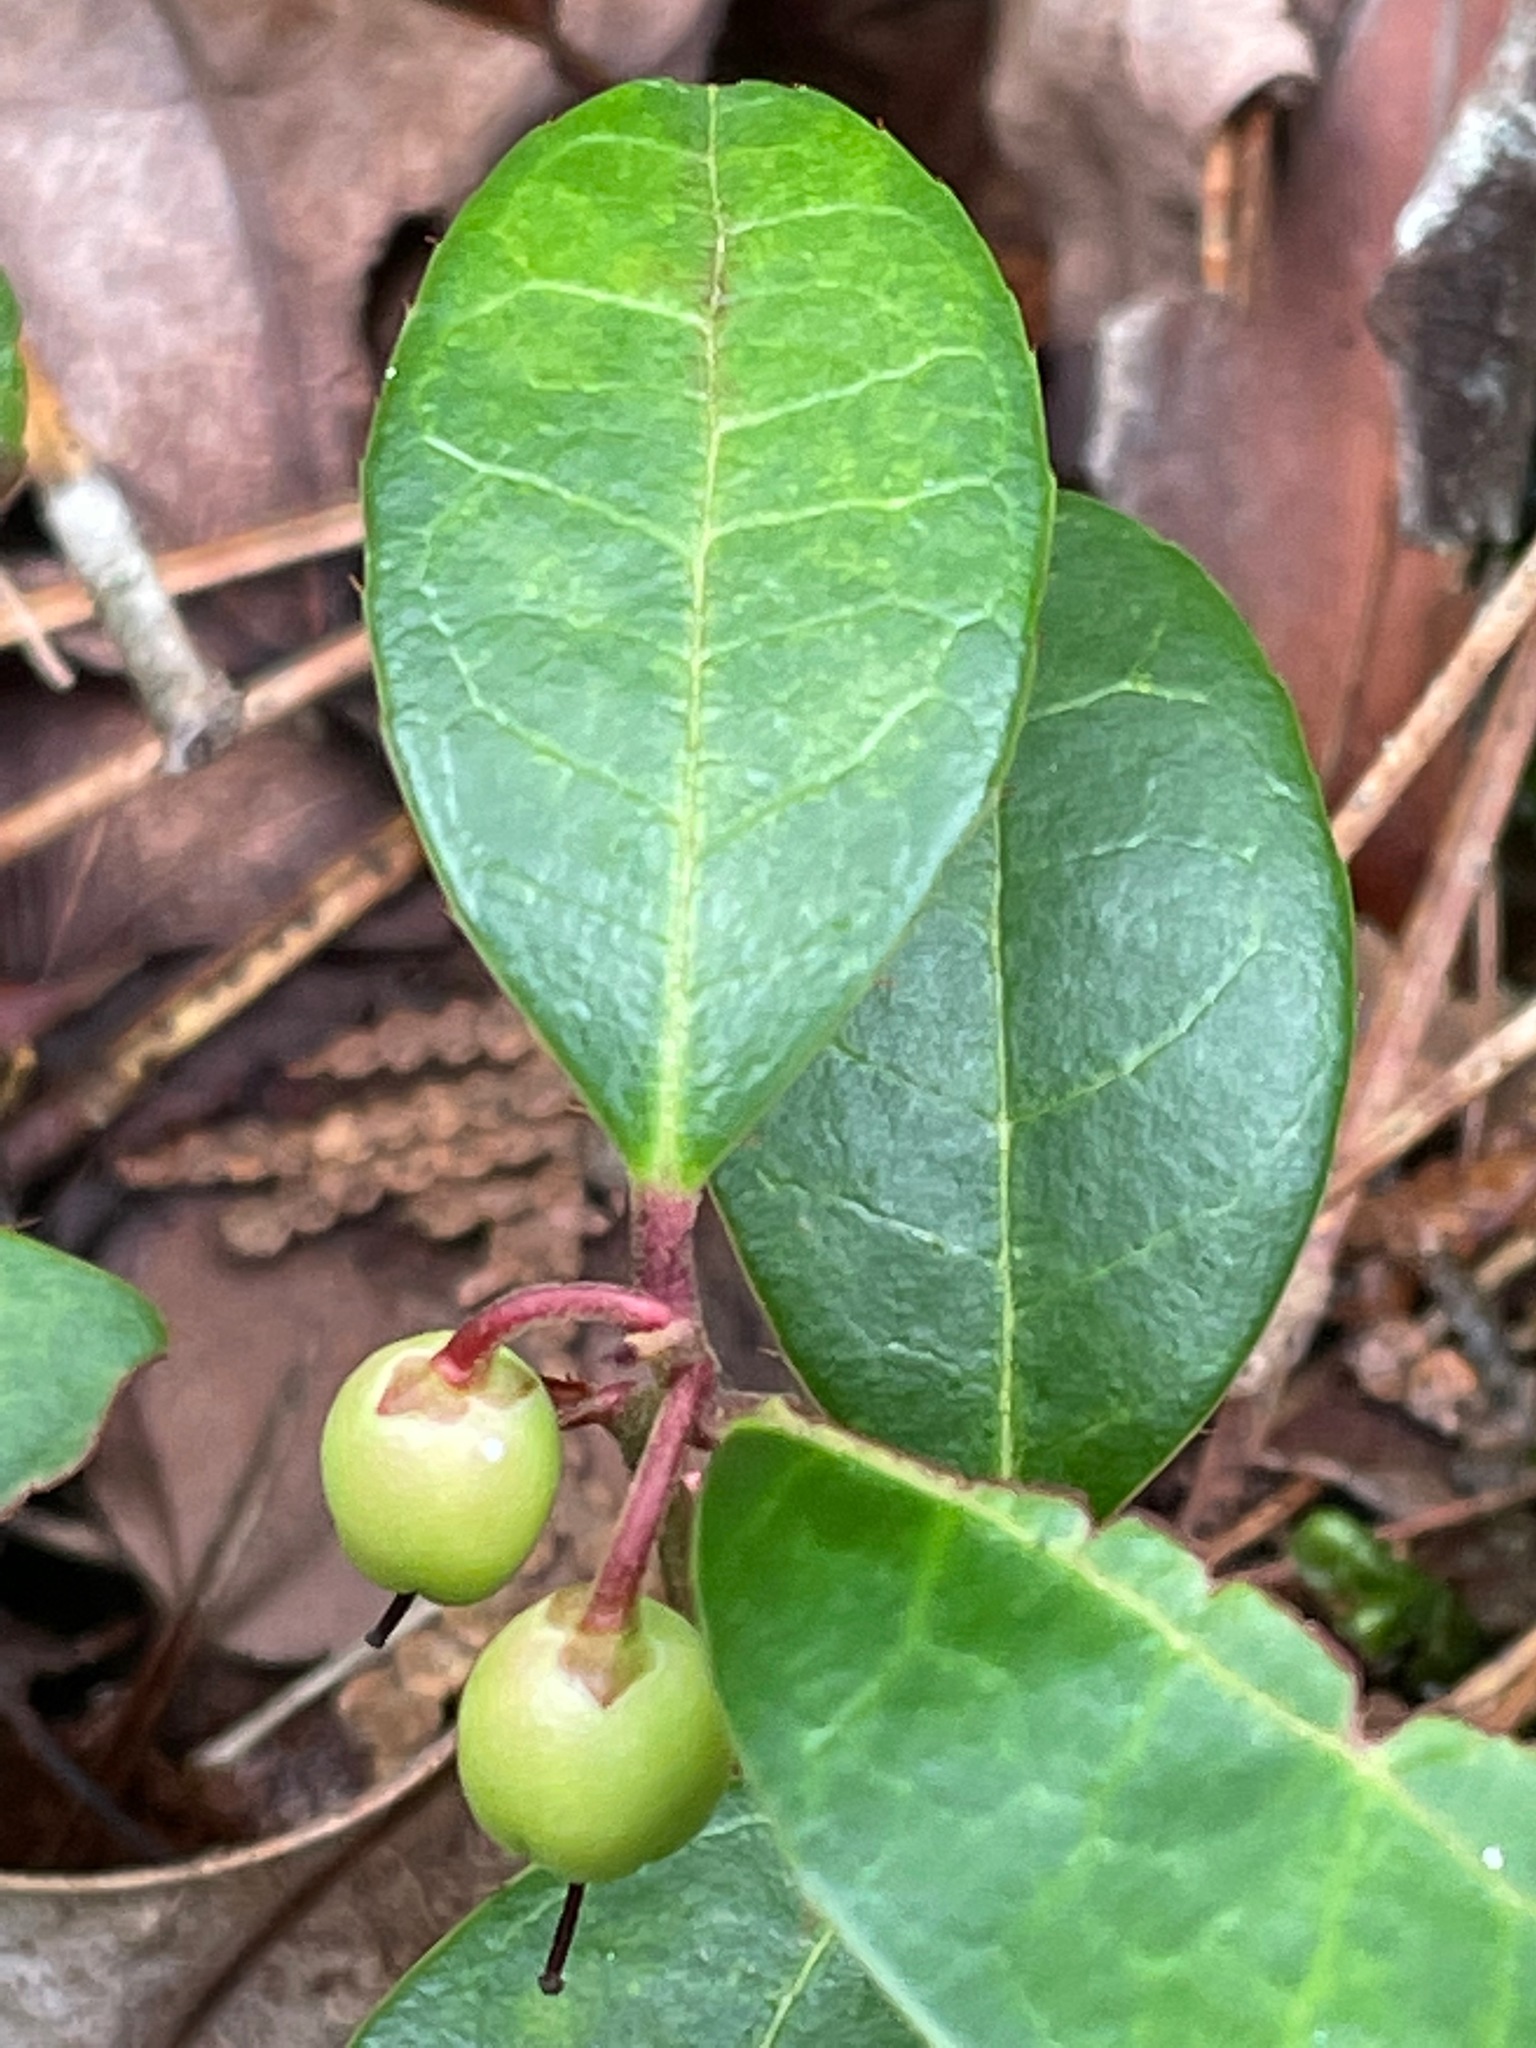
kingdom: Plantae
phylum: Tracheophyta
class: Magnoliopsida
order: Ericales
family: Ericaceae
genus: Gaultheria
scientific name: Gaultheria procumbens
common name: Checkerberry
